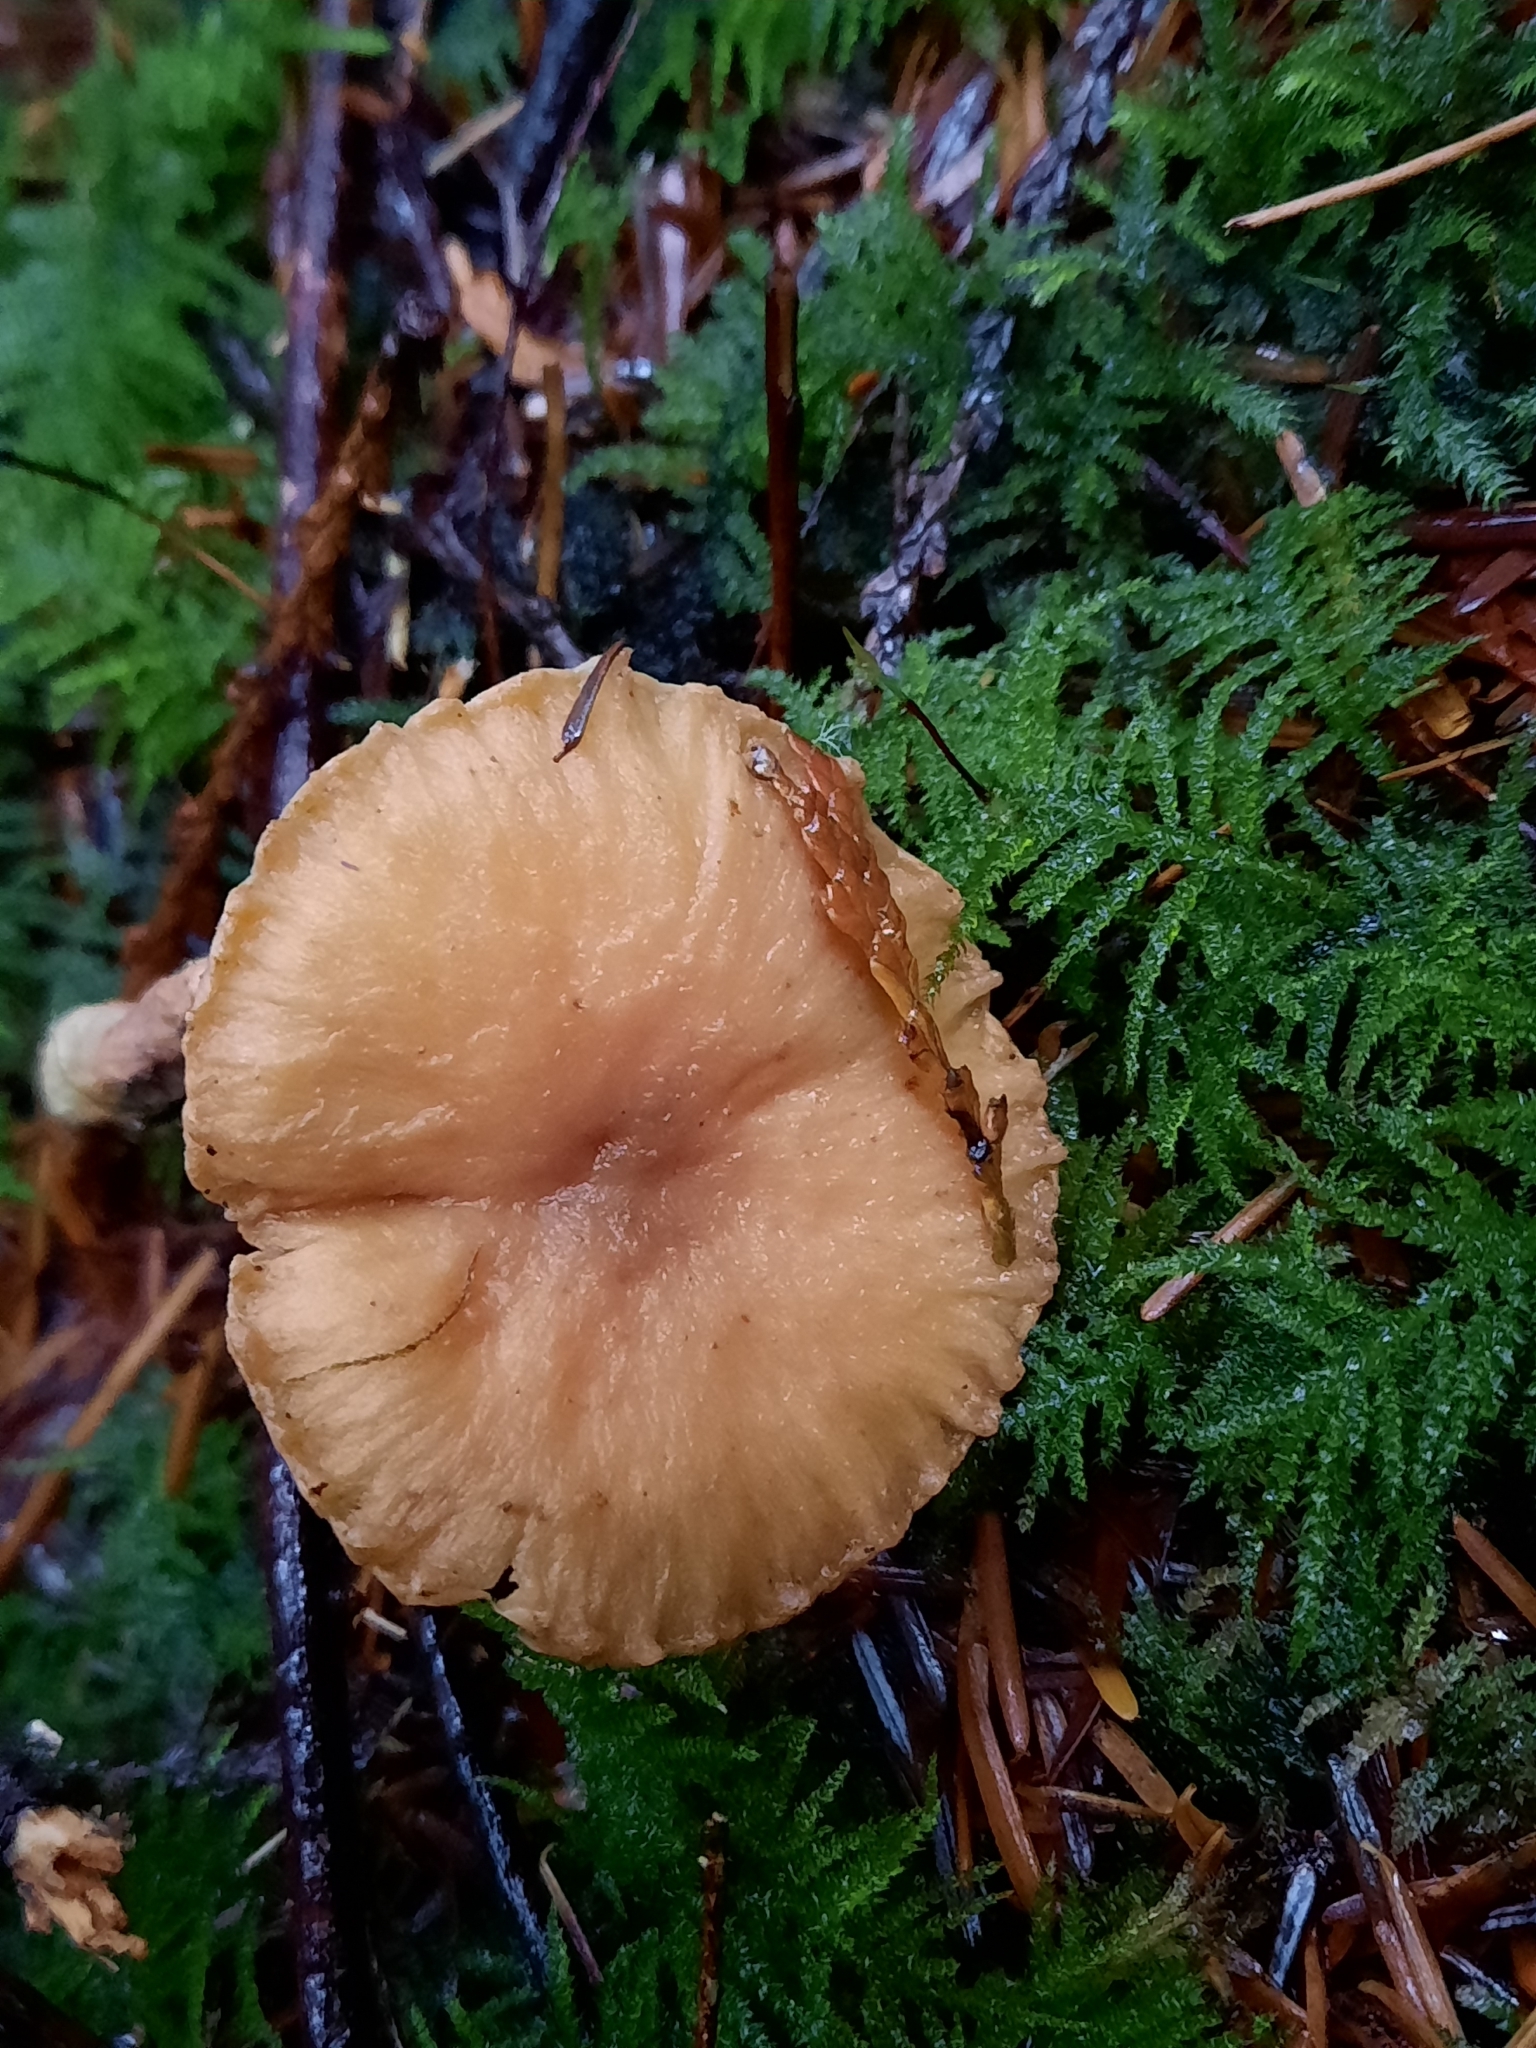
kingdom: Fungi
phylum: Basidiomycota
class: Agaricomycetes
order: Boletales
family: Gomphidiaceae
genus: Chroogomphus
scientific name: Chroogomphus tomentosus
